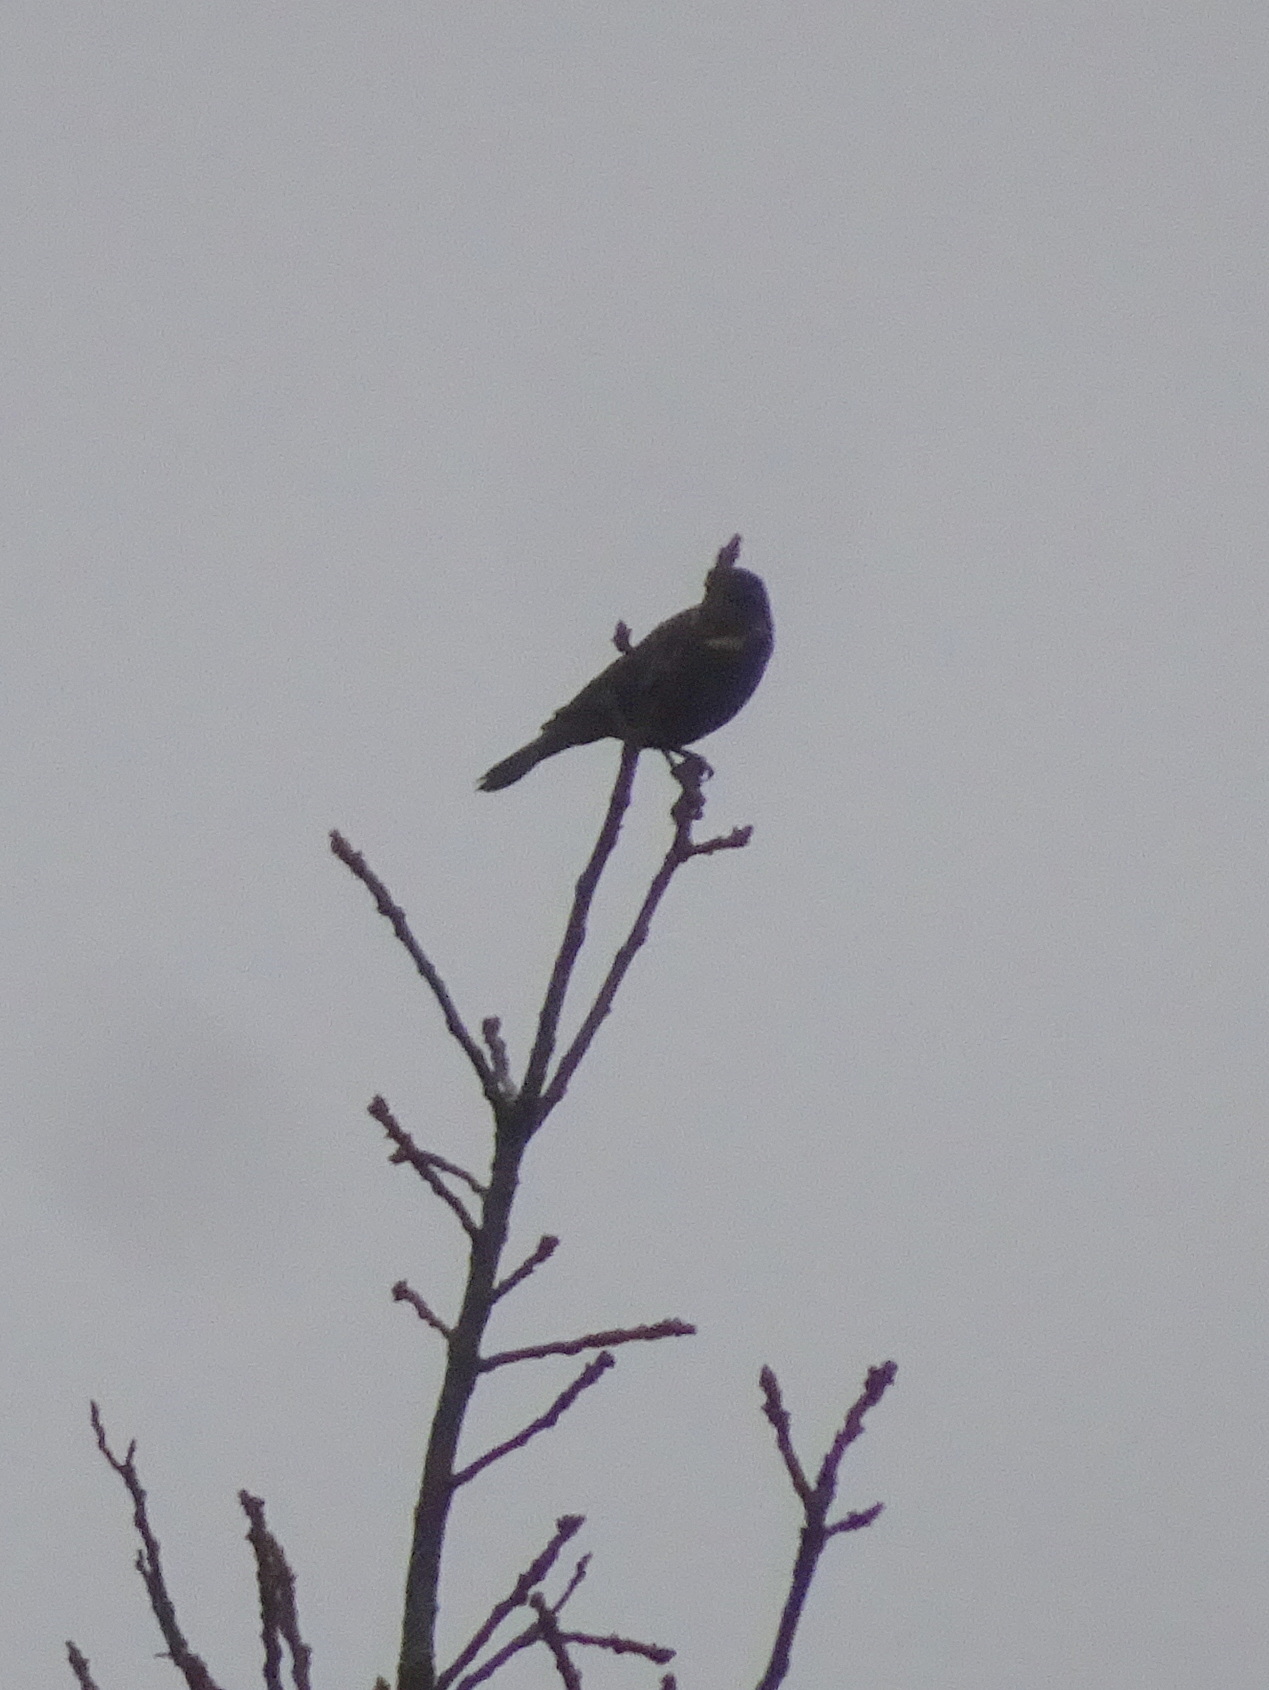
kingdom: Animalia
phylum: Chordata
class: Aves
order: Passeriformes
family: Icteridae
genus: Agelaius
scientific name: Agelaius phoeniceus
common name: Red-winged blackbird
